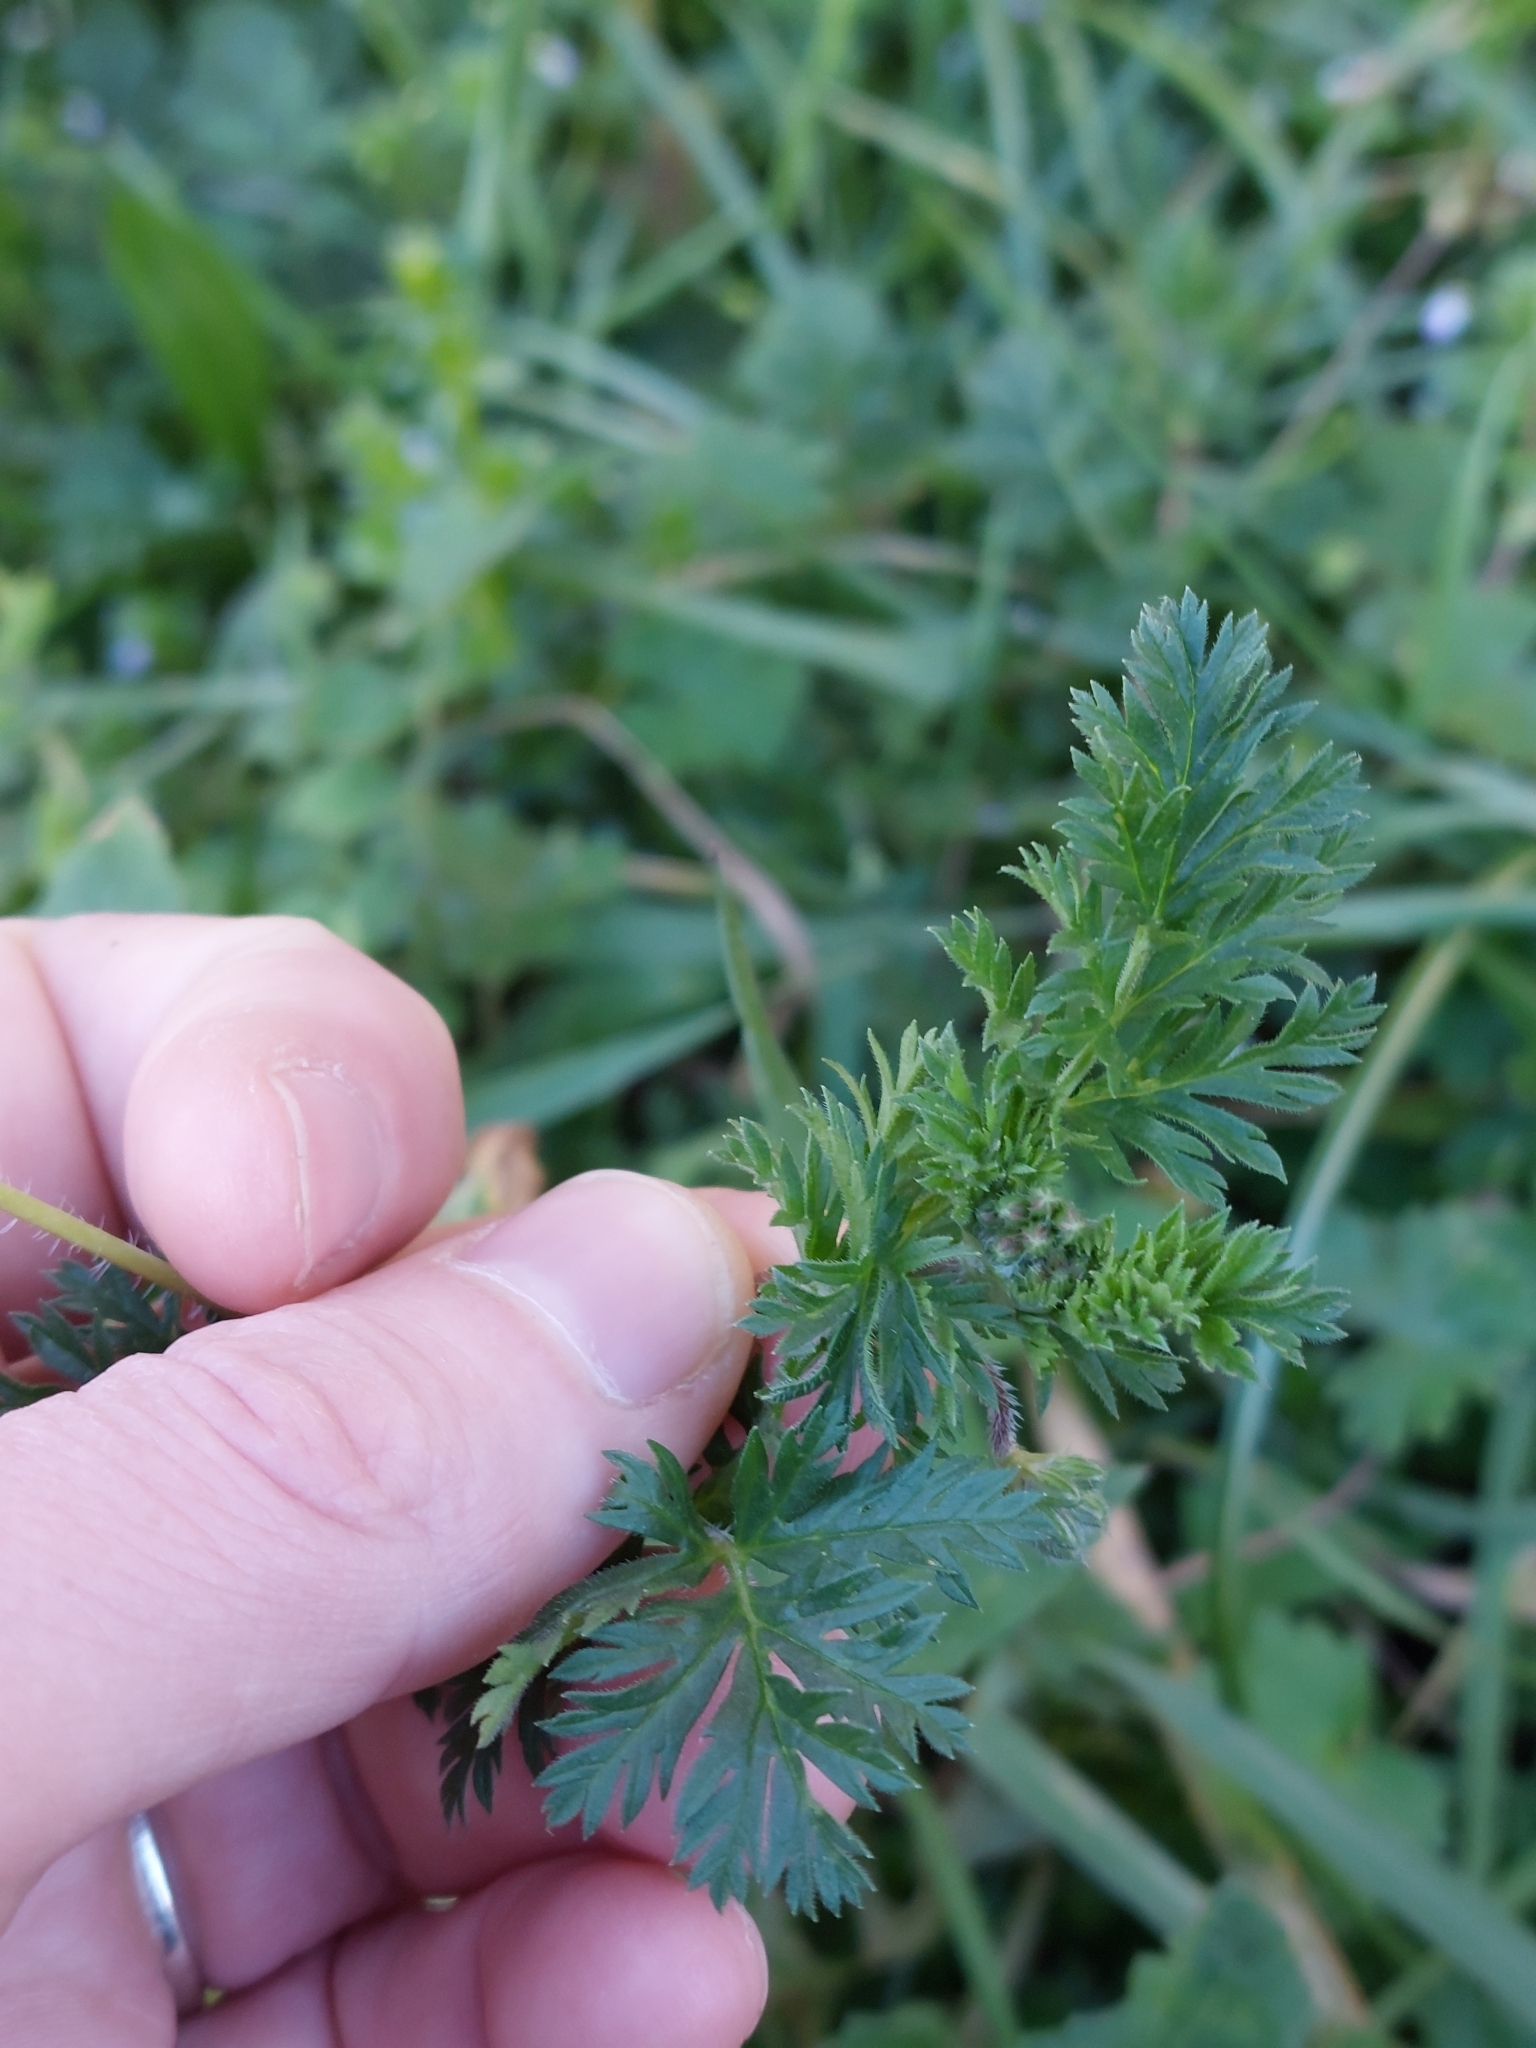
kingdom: Plantae
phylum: Tracheophyta
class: Magnoliopsida
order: Geraniales
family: Geraniaceae
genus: Erodium
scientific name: Erodium cicutarium
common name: Common stork's-bill
